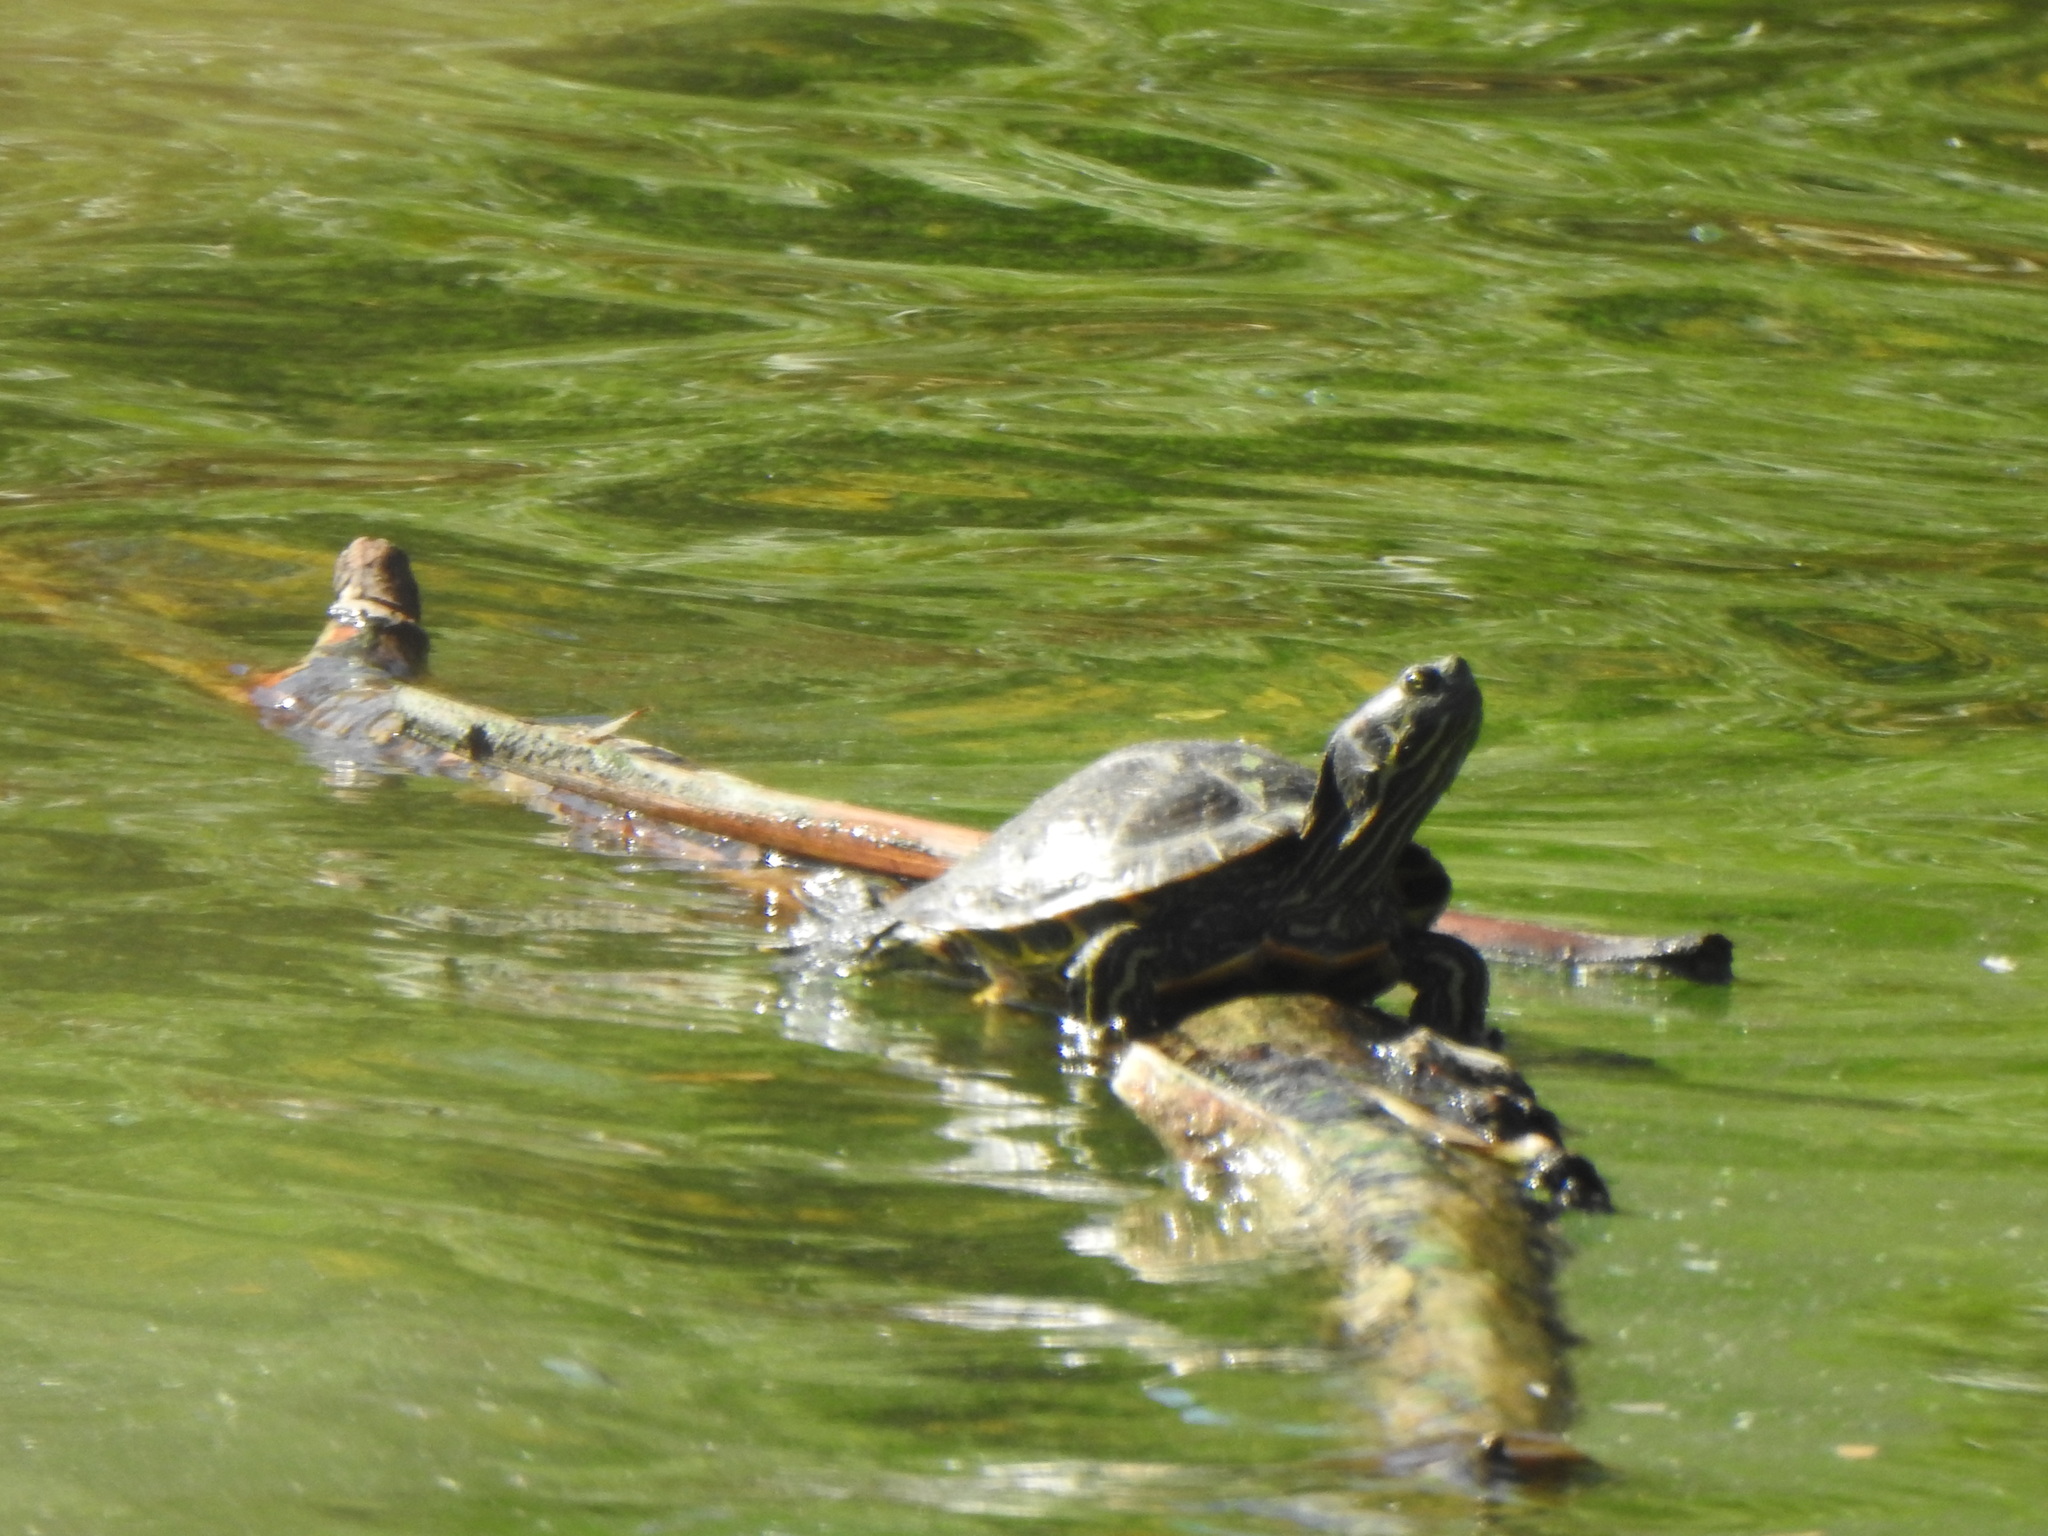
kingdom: Animalia
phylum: Chordata
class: Testudines
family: Emydidae
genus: Trachemys
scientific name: Trachemys scripta
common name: Slider
